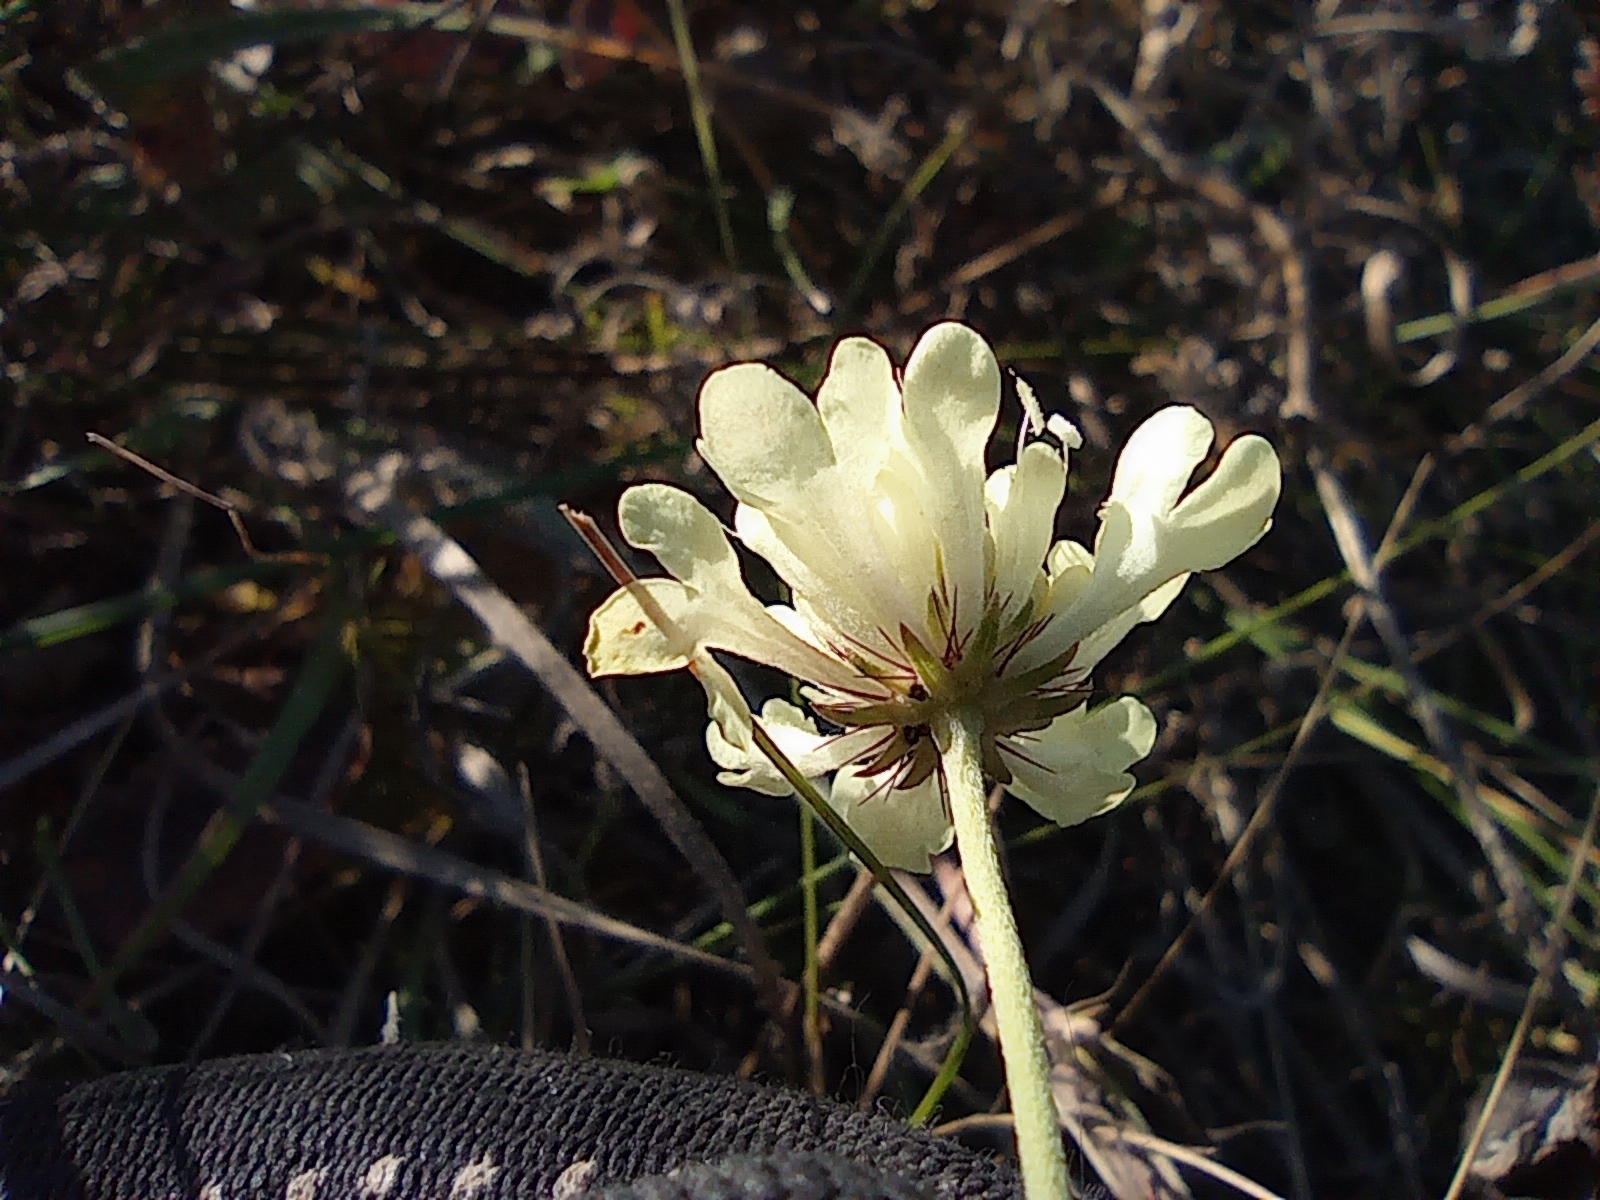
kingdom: Plantae
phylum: Tracheophyta
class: Magnoliopsida
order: Dipsacales
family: Caprifoliaceae
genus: Scabiosa
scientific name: Scabiosa ochroleuca
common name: Cream pincushions
